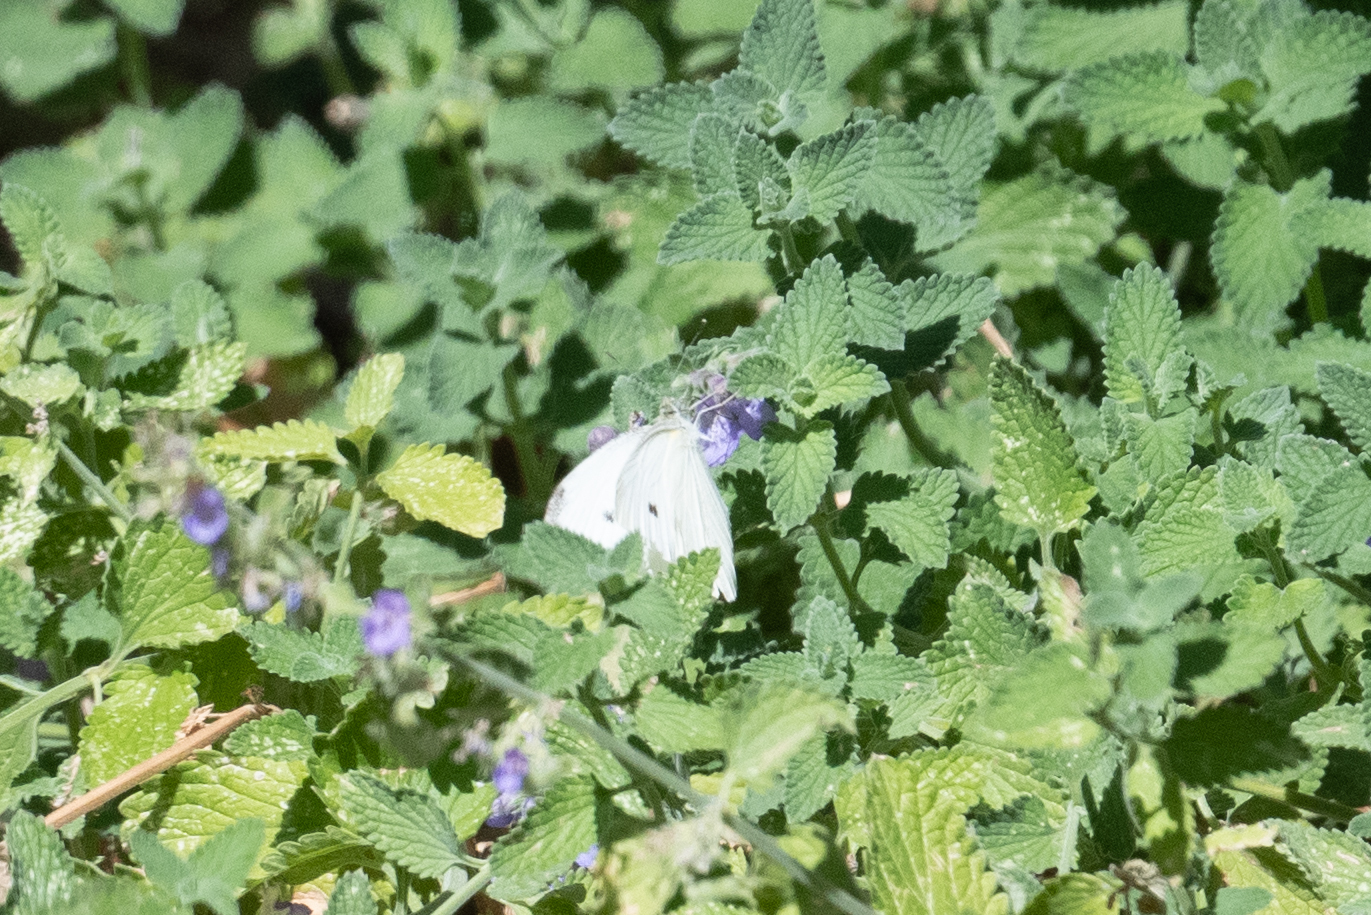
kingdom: Animalia
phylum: Arthropoda
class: Insecta
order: Lepidoptera
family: Pieridae
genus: Pieris
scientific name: Pieris rapae
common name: Small white
